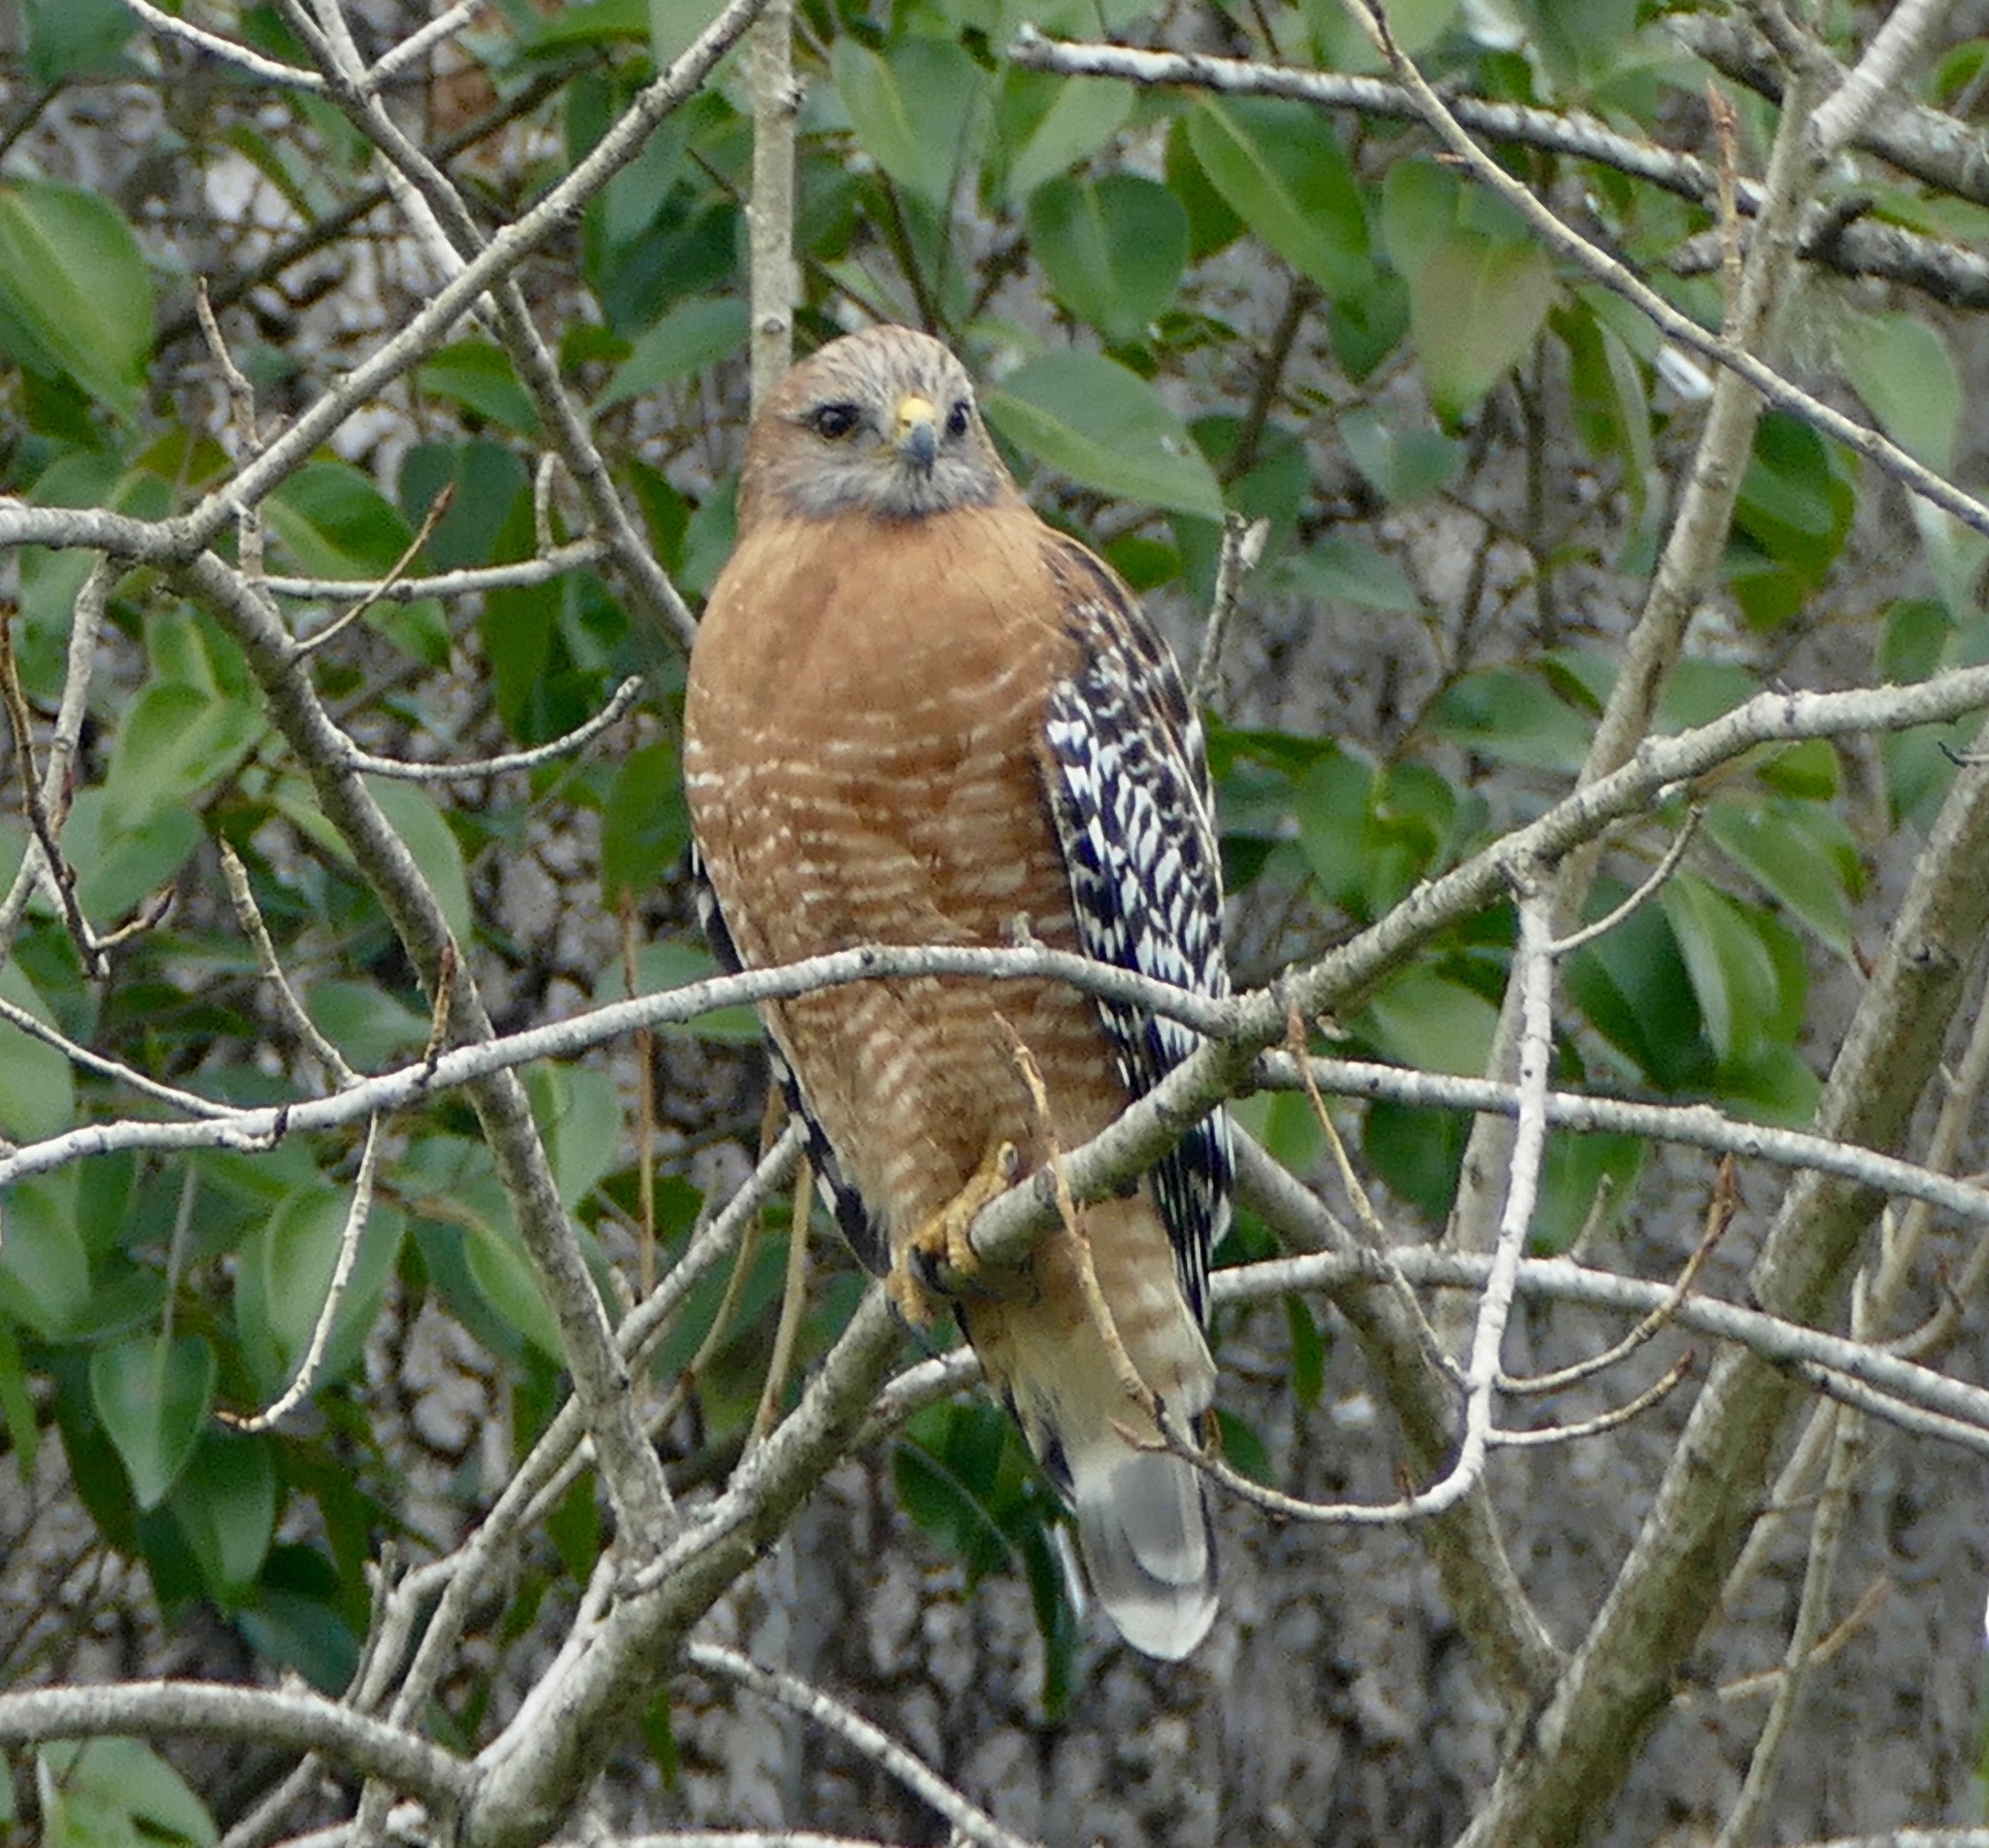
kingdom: Animalia
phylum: Chordata
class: Aves
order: Accipitriformes
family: Accipitridae
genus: Buteo
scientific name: Buteo lineatus
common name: Red-shouldered hawk
